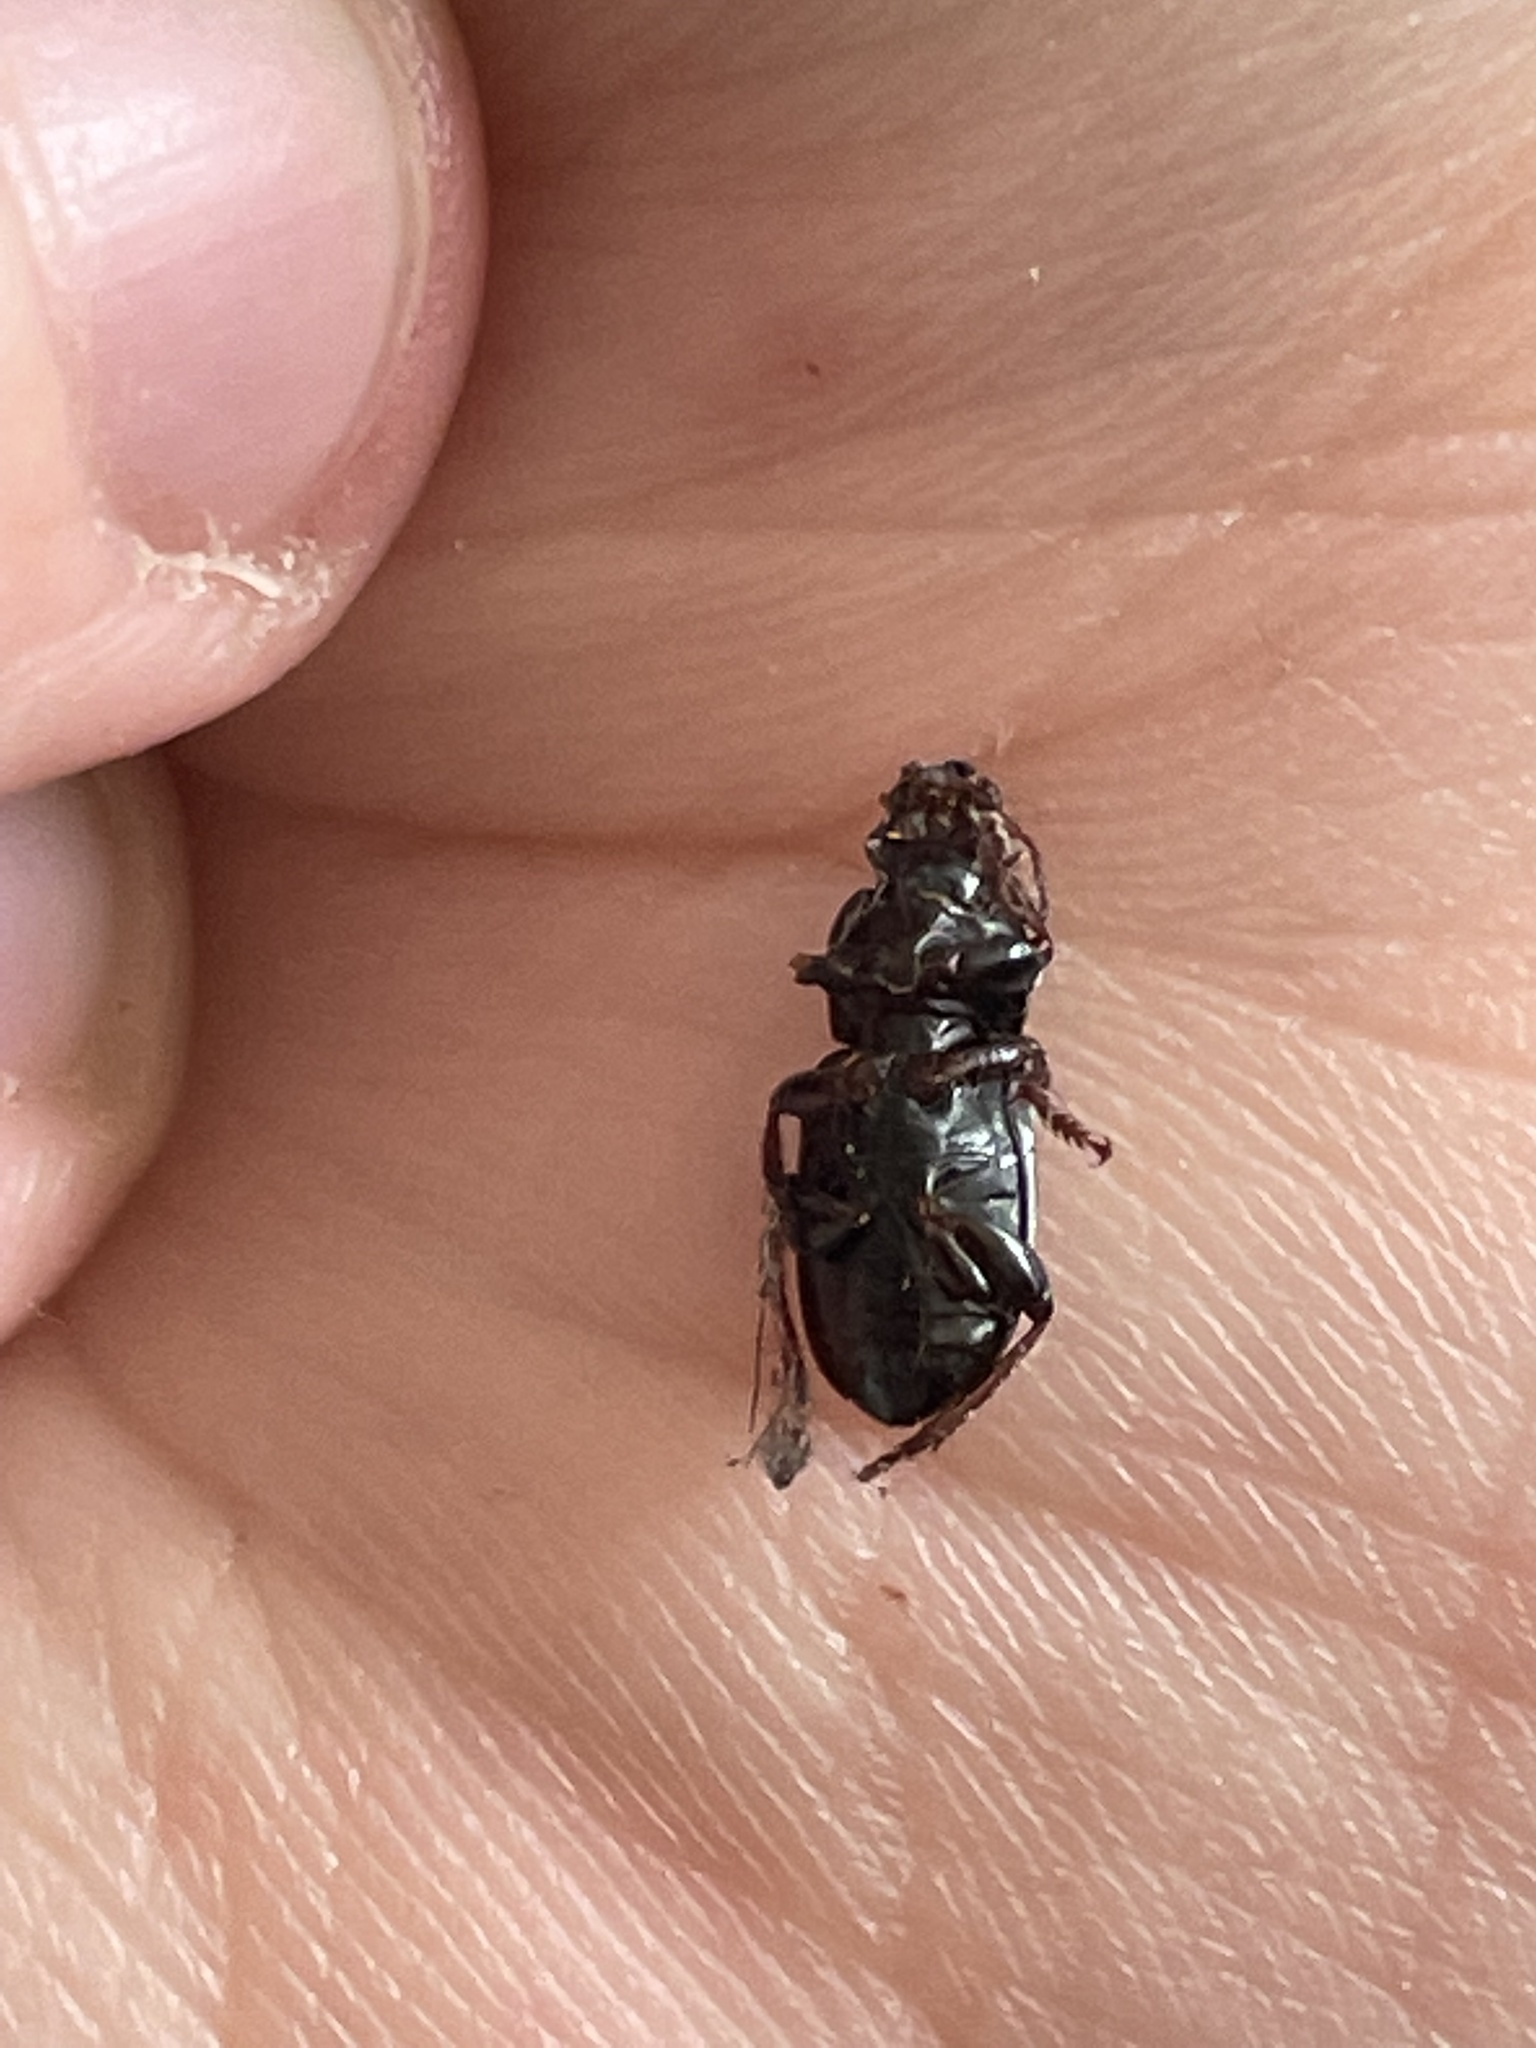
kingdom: Animalia
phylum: Arthropoda
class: Insecta
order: Coleoptera
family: Carabidae
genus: Harpalus
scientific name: Harpalus affinis
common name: Polychrome harp ground beetle
